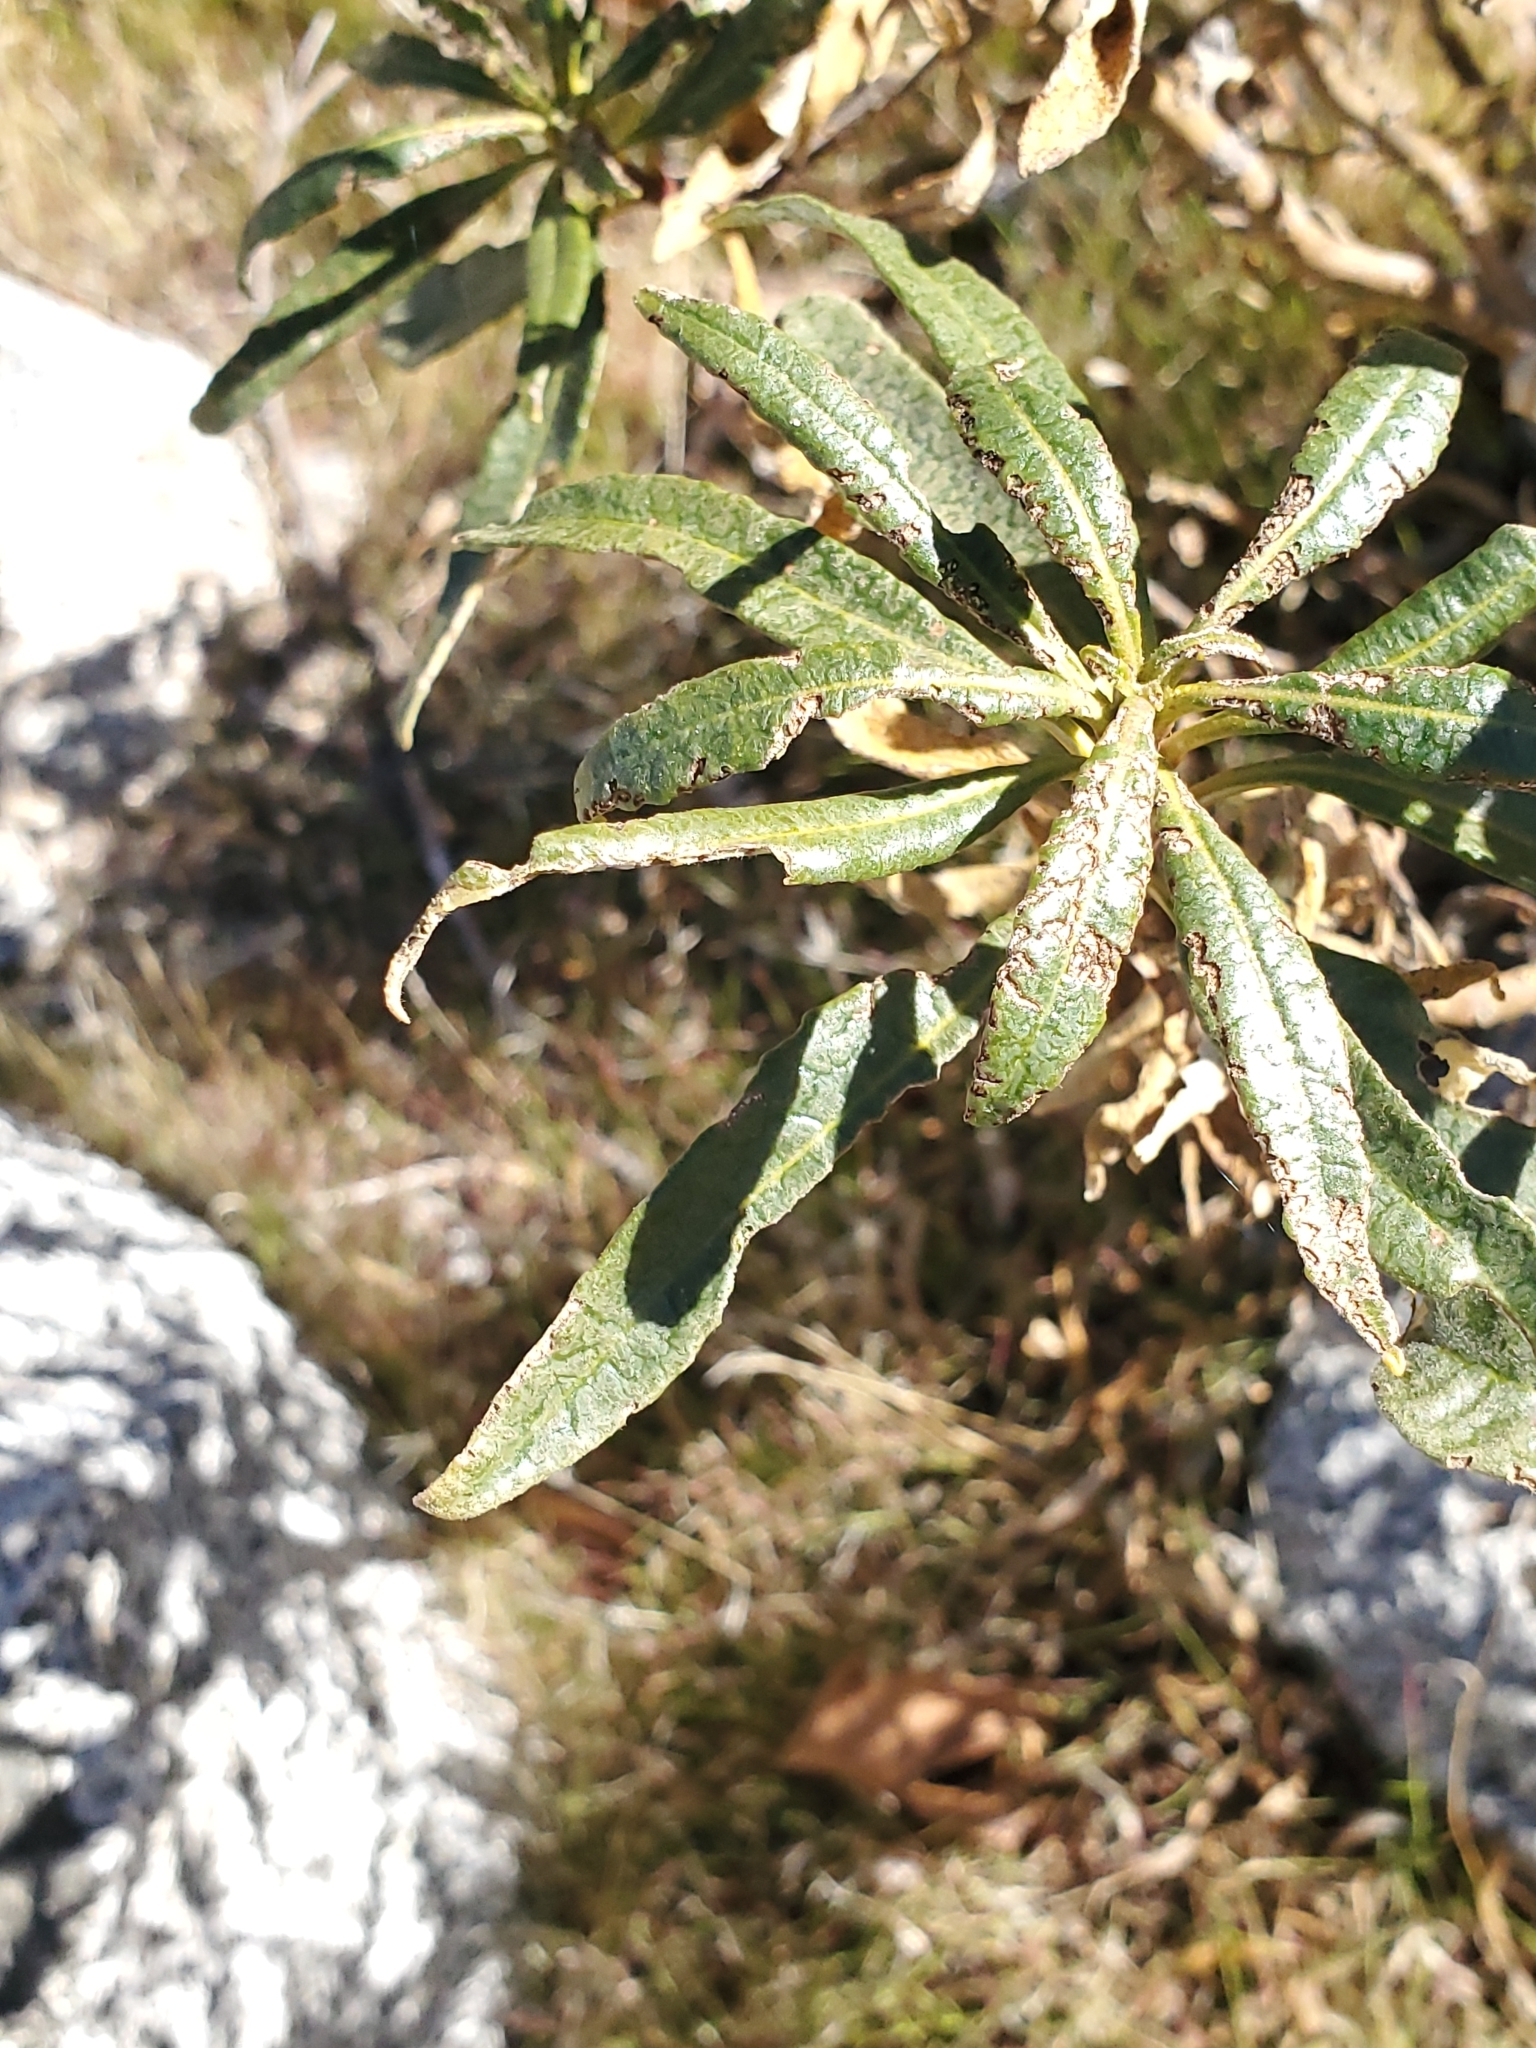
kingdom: Plantae
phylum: Tracheophyta
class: Magnoliopsida
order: Boraginales
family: Namaceae
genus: Eriodictyon
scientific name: Eriodictyon trichocalyx
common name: Hairy yerba-santa
